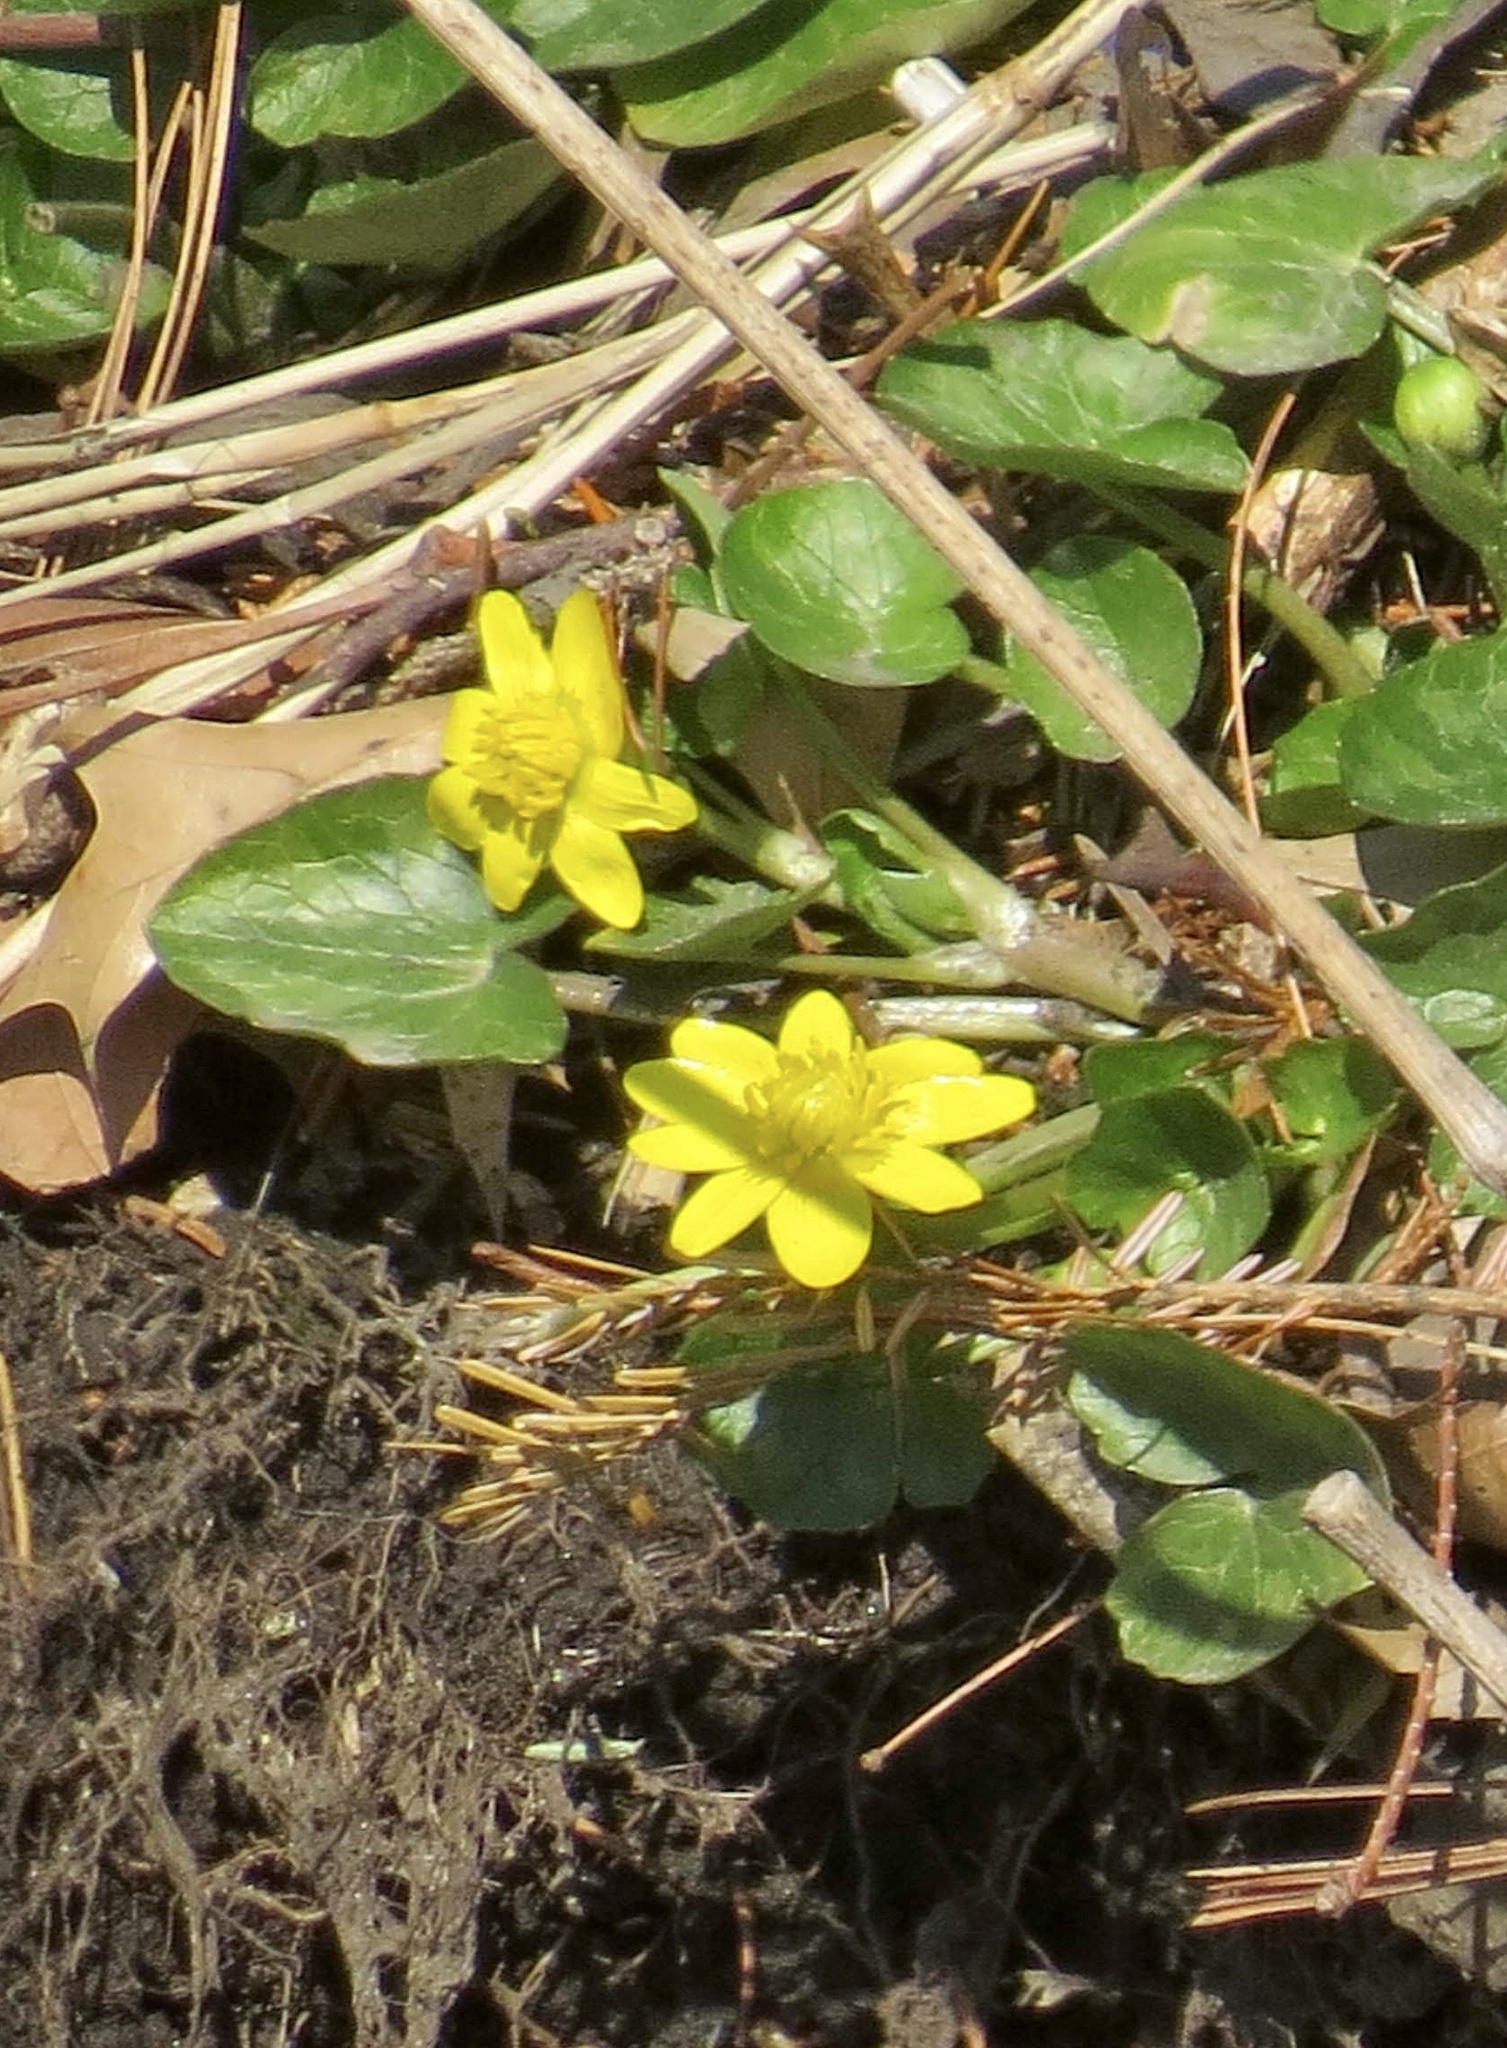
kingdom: Plantae
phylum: Tracheophyta
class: Magnoliopsida
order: Ranunculales
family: Ranunculaceae
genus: Ficaria
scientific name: Ficaria verna
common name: Lesser celandine
